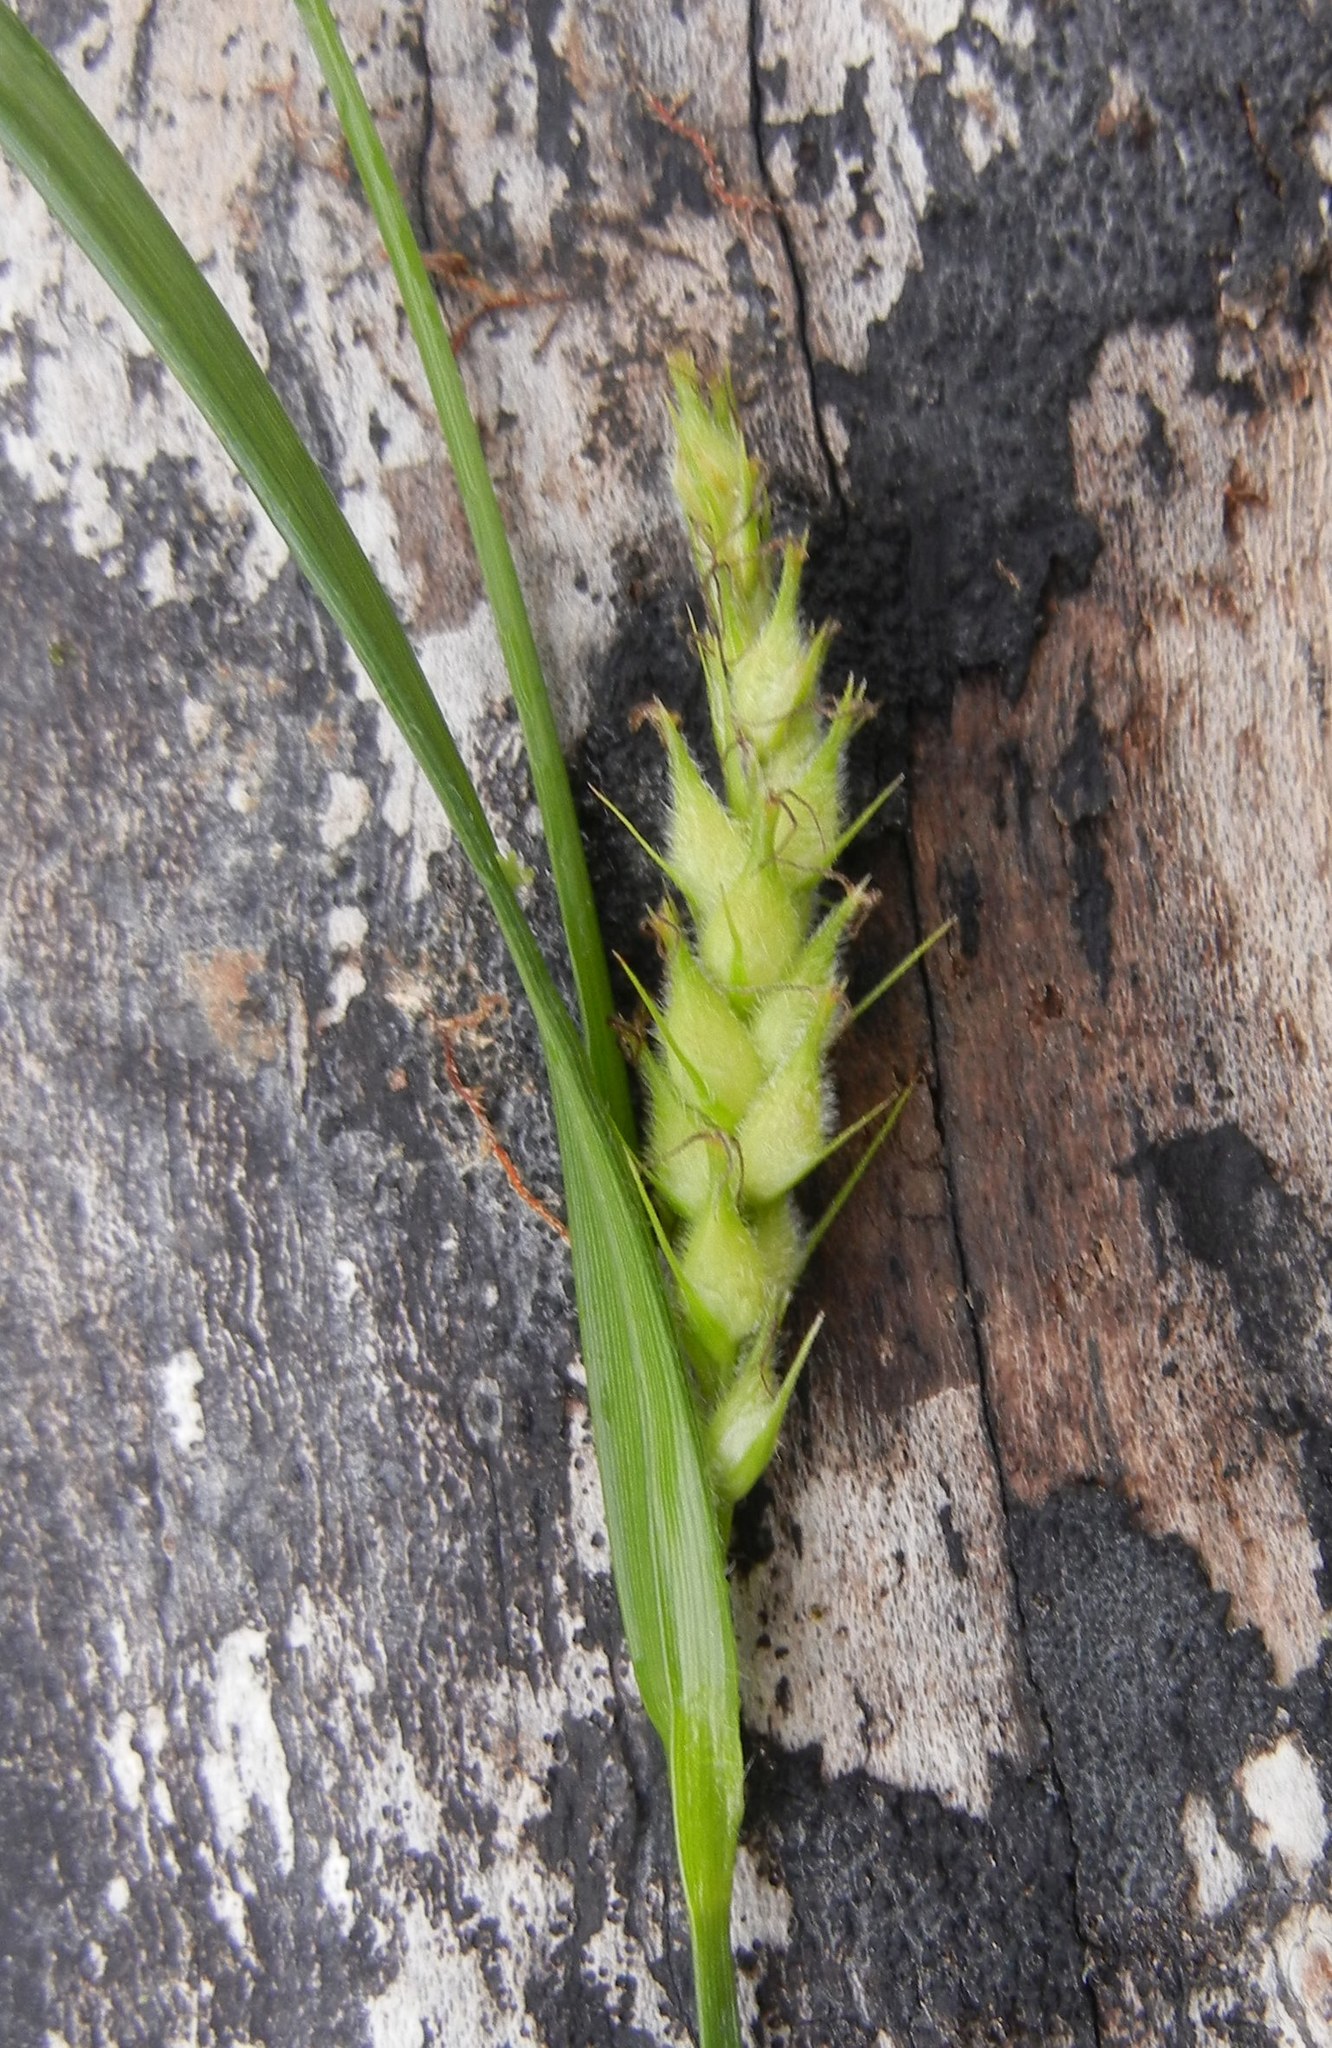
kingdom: Plantae
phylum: Tracheophyta
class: Liliopsida
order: Poales
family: Cyperaceae
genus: Carex
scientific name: Carex hirta
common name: Hairy sedge
